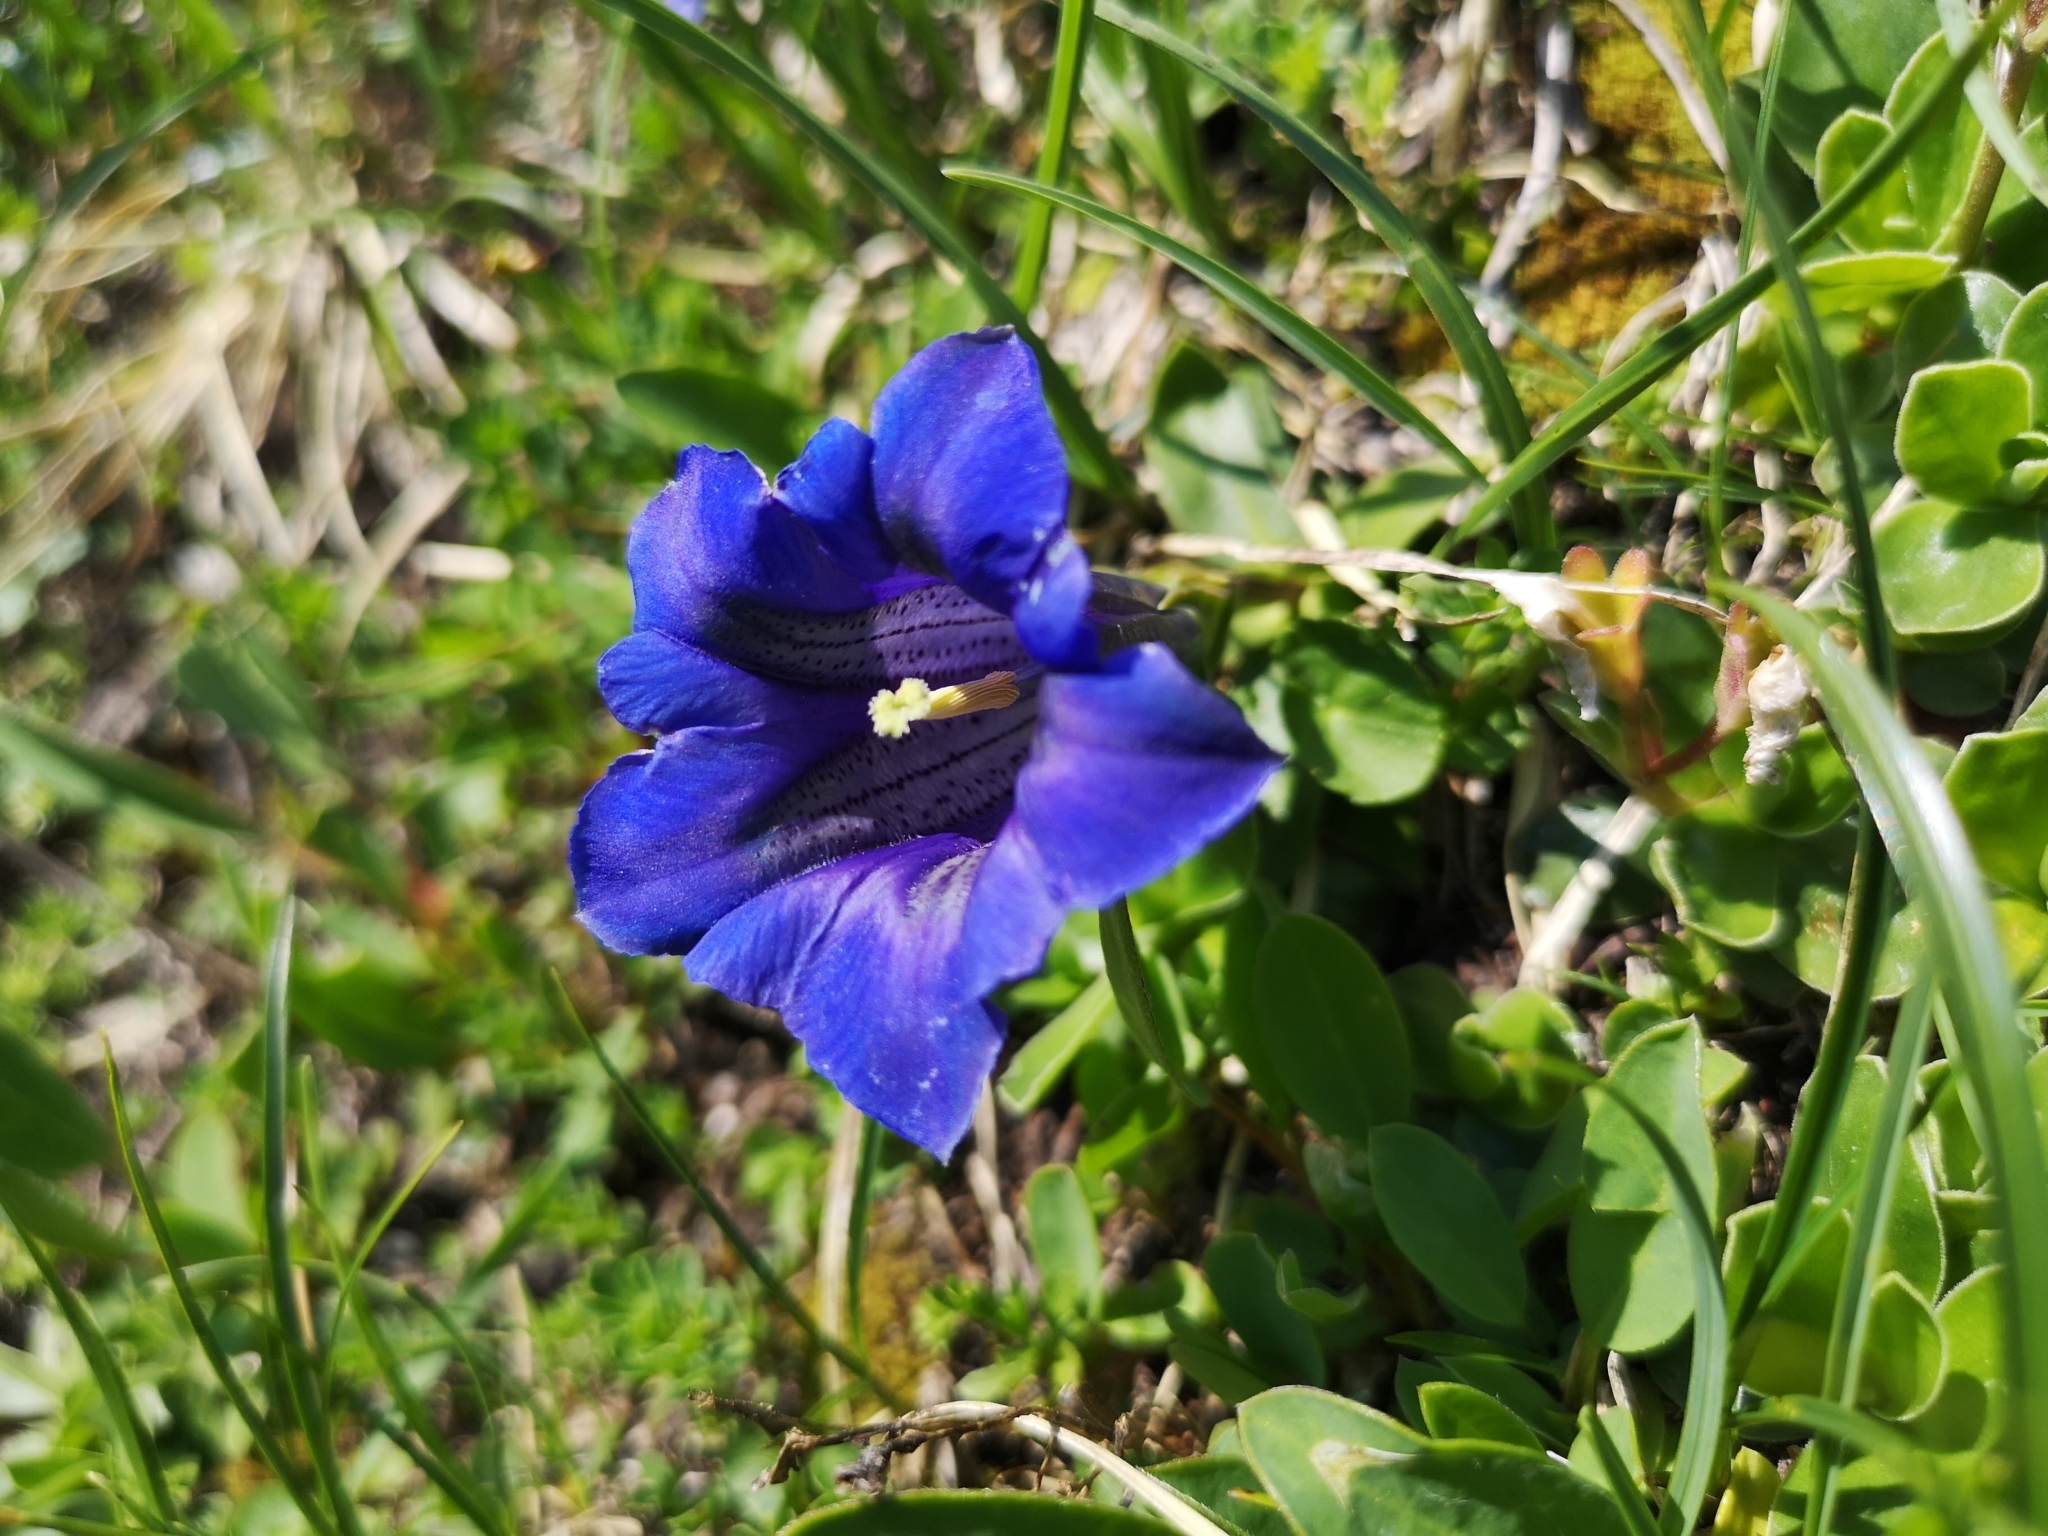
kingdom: Plantae
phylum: Tracheophyta
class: Magnoliopsida
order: Gentianales
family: Gentianaceae
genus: Gentiana
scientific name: Gentiana clusii
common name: Trumpet gentian
